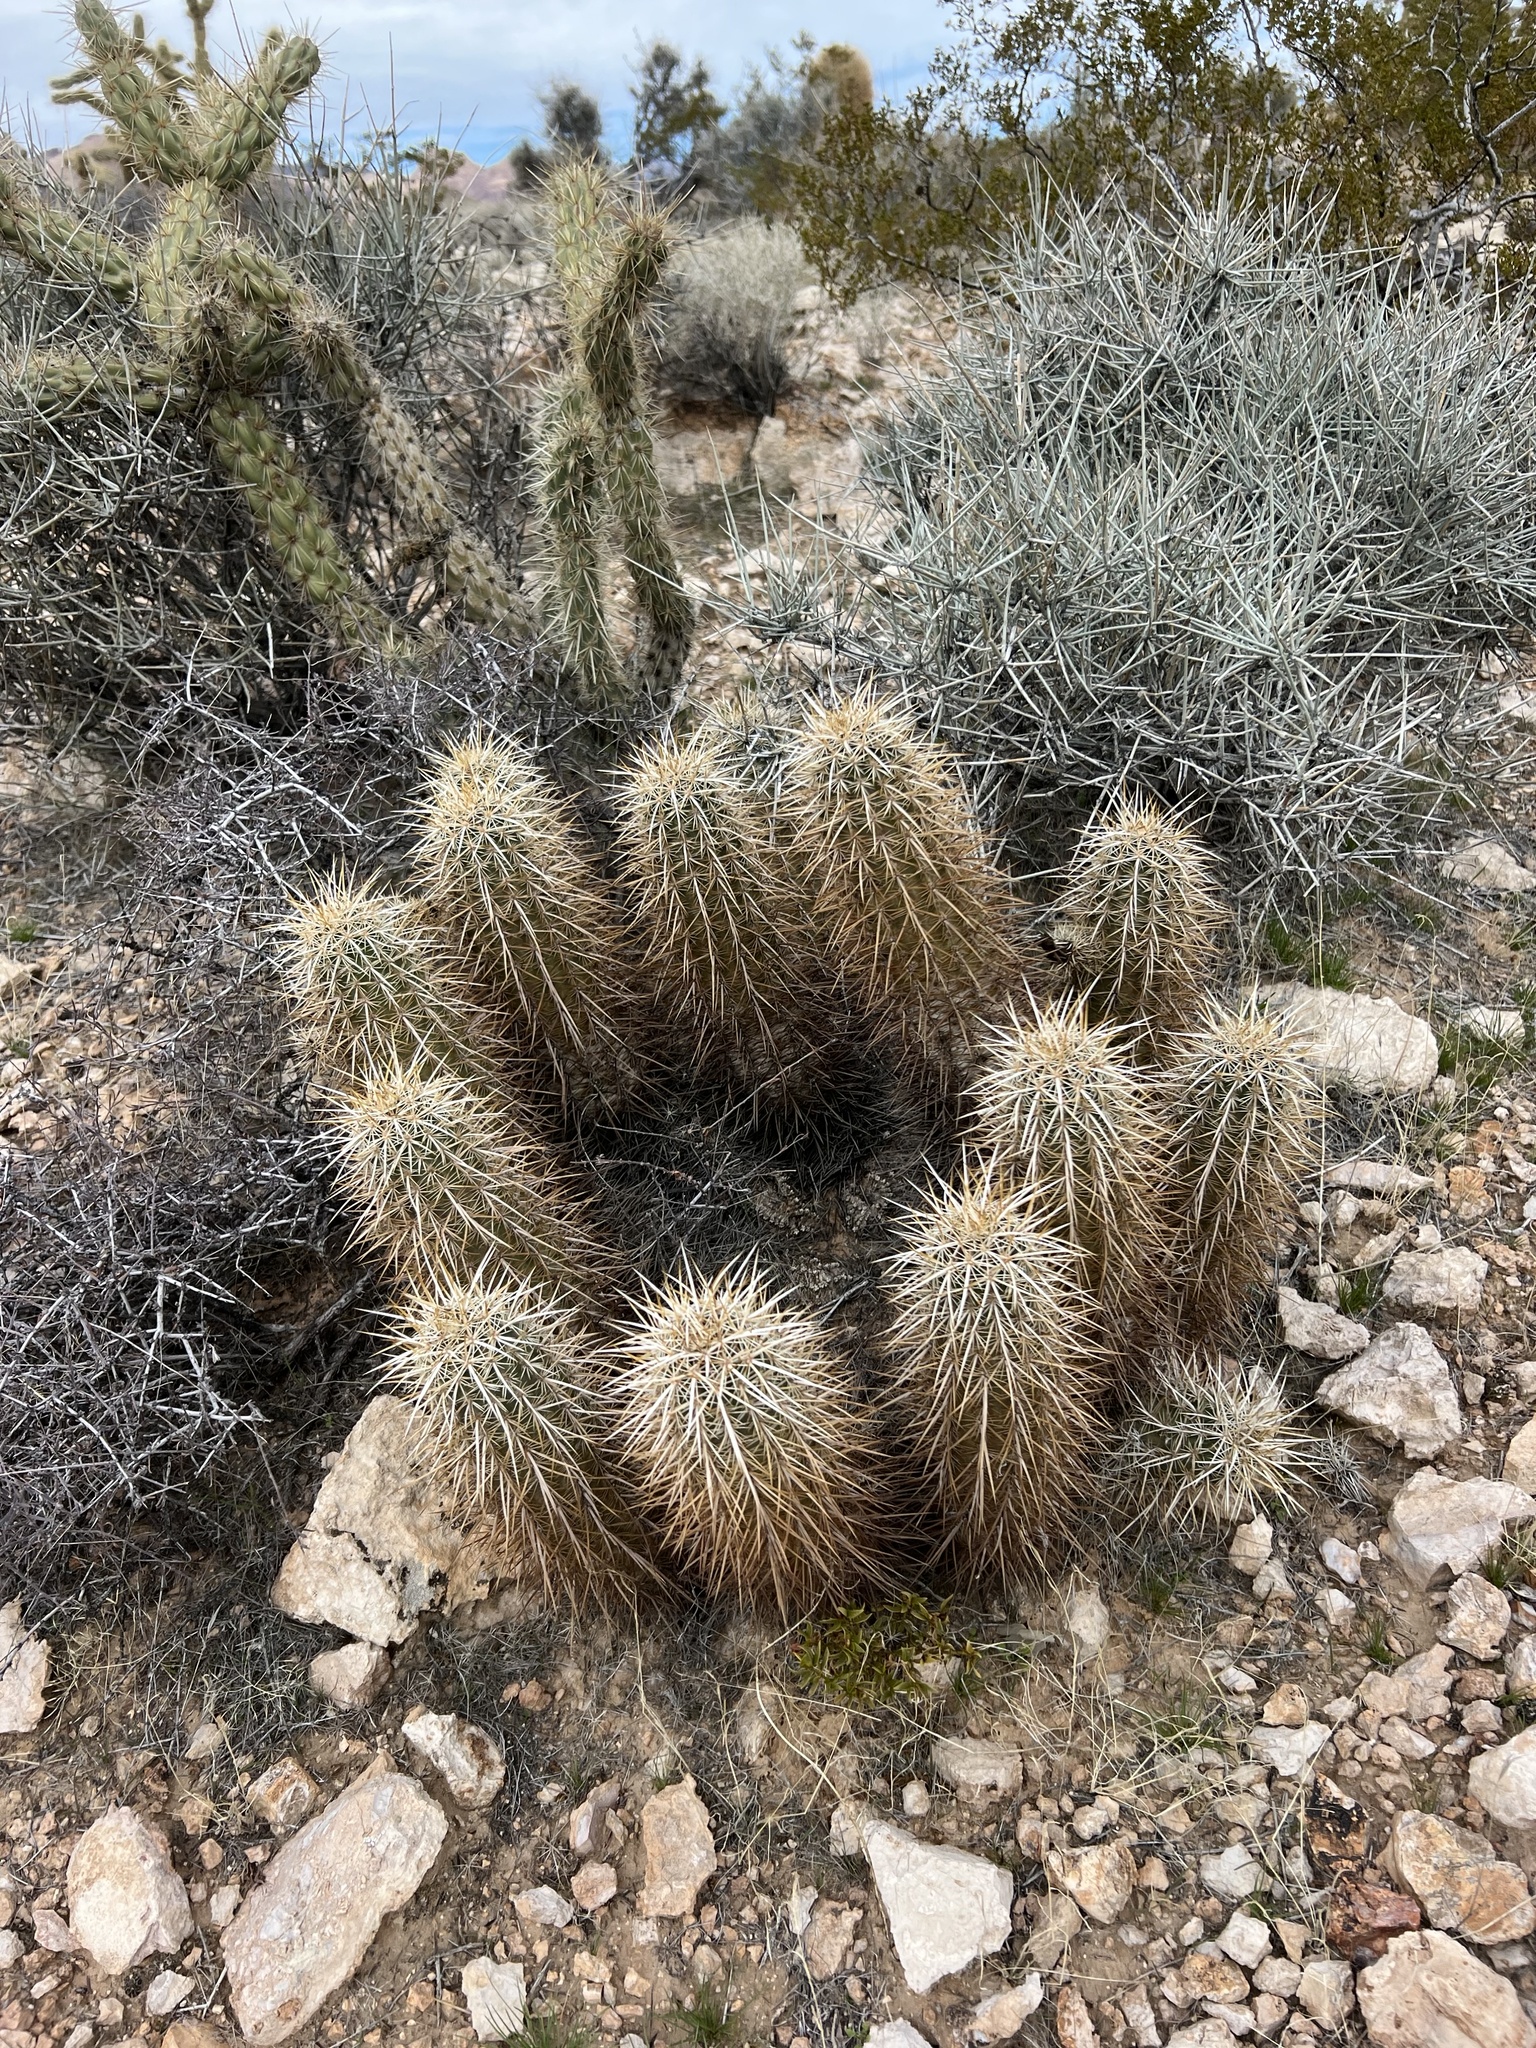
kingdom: Plantae
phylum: Tracheophyta
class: Magnoliopsida
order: Caryophyllales
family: Cactaceae
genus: Echinocereus
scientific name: Echinocereus engelmannii
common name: Engelmann's hedgehog cactus
